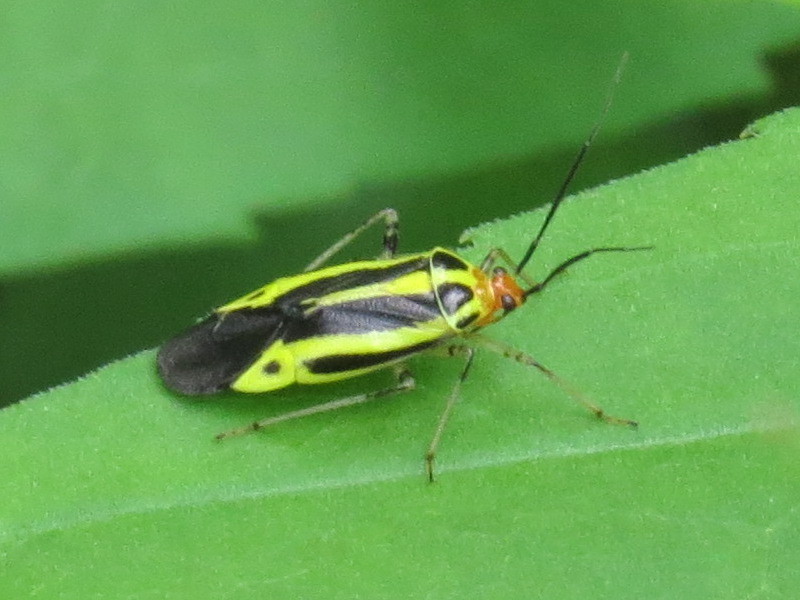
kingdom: Animalia
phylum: Arthropoda
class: Insecta
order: Hemiptera
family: Miridae
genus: Poecilocapsus
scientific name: Poecilocapsus lineatus
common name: Four-lined plant bug
